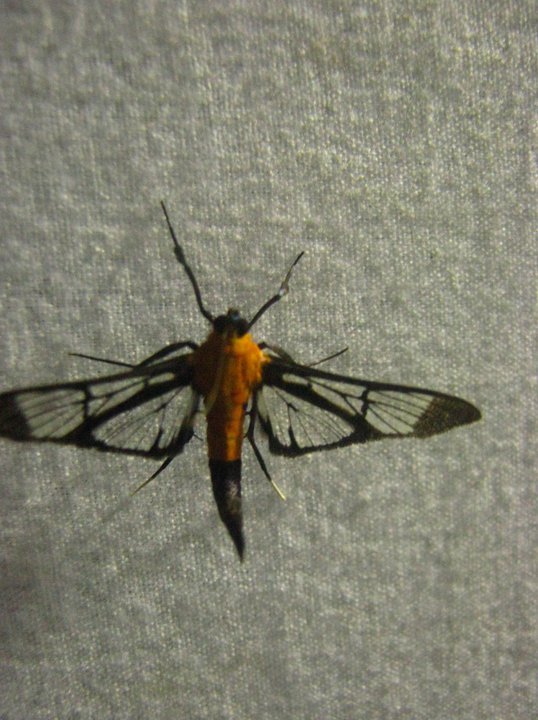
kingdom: Animalia
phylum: Arthropoda
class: Insecta
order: Lepidoptera
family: Crambidae
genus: Trichaea
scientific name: Trichaea pilicornis
